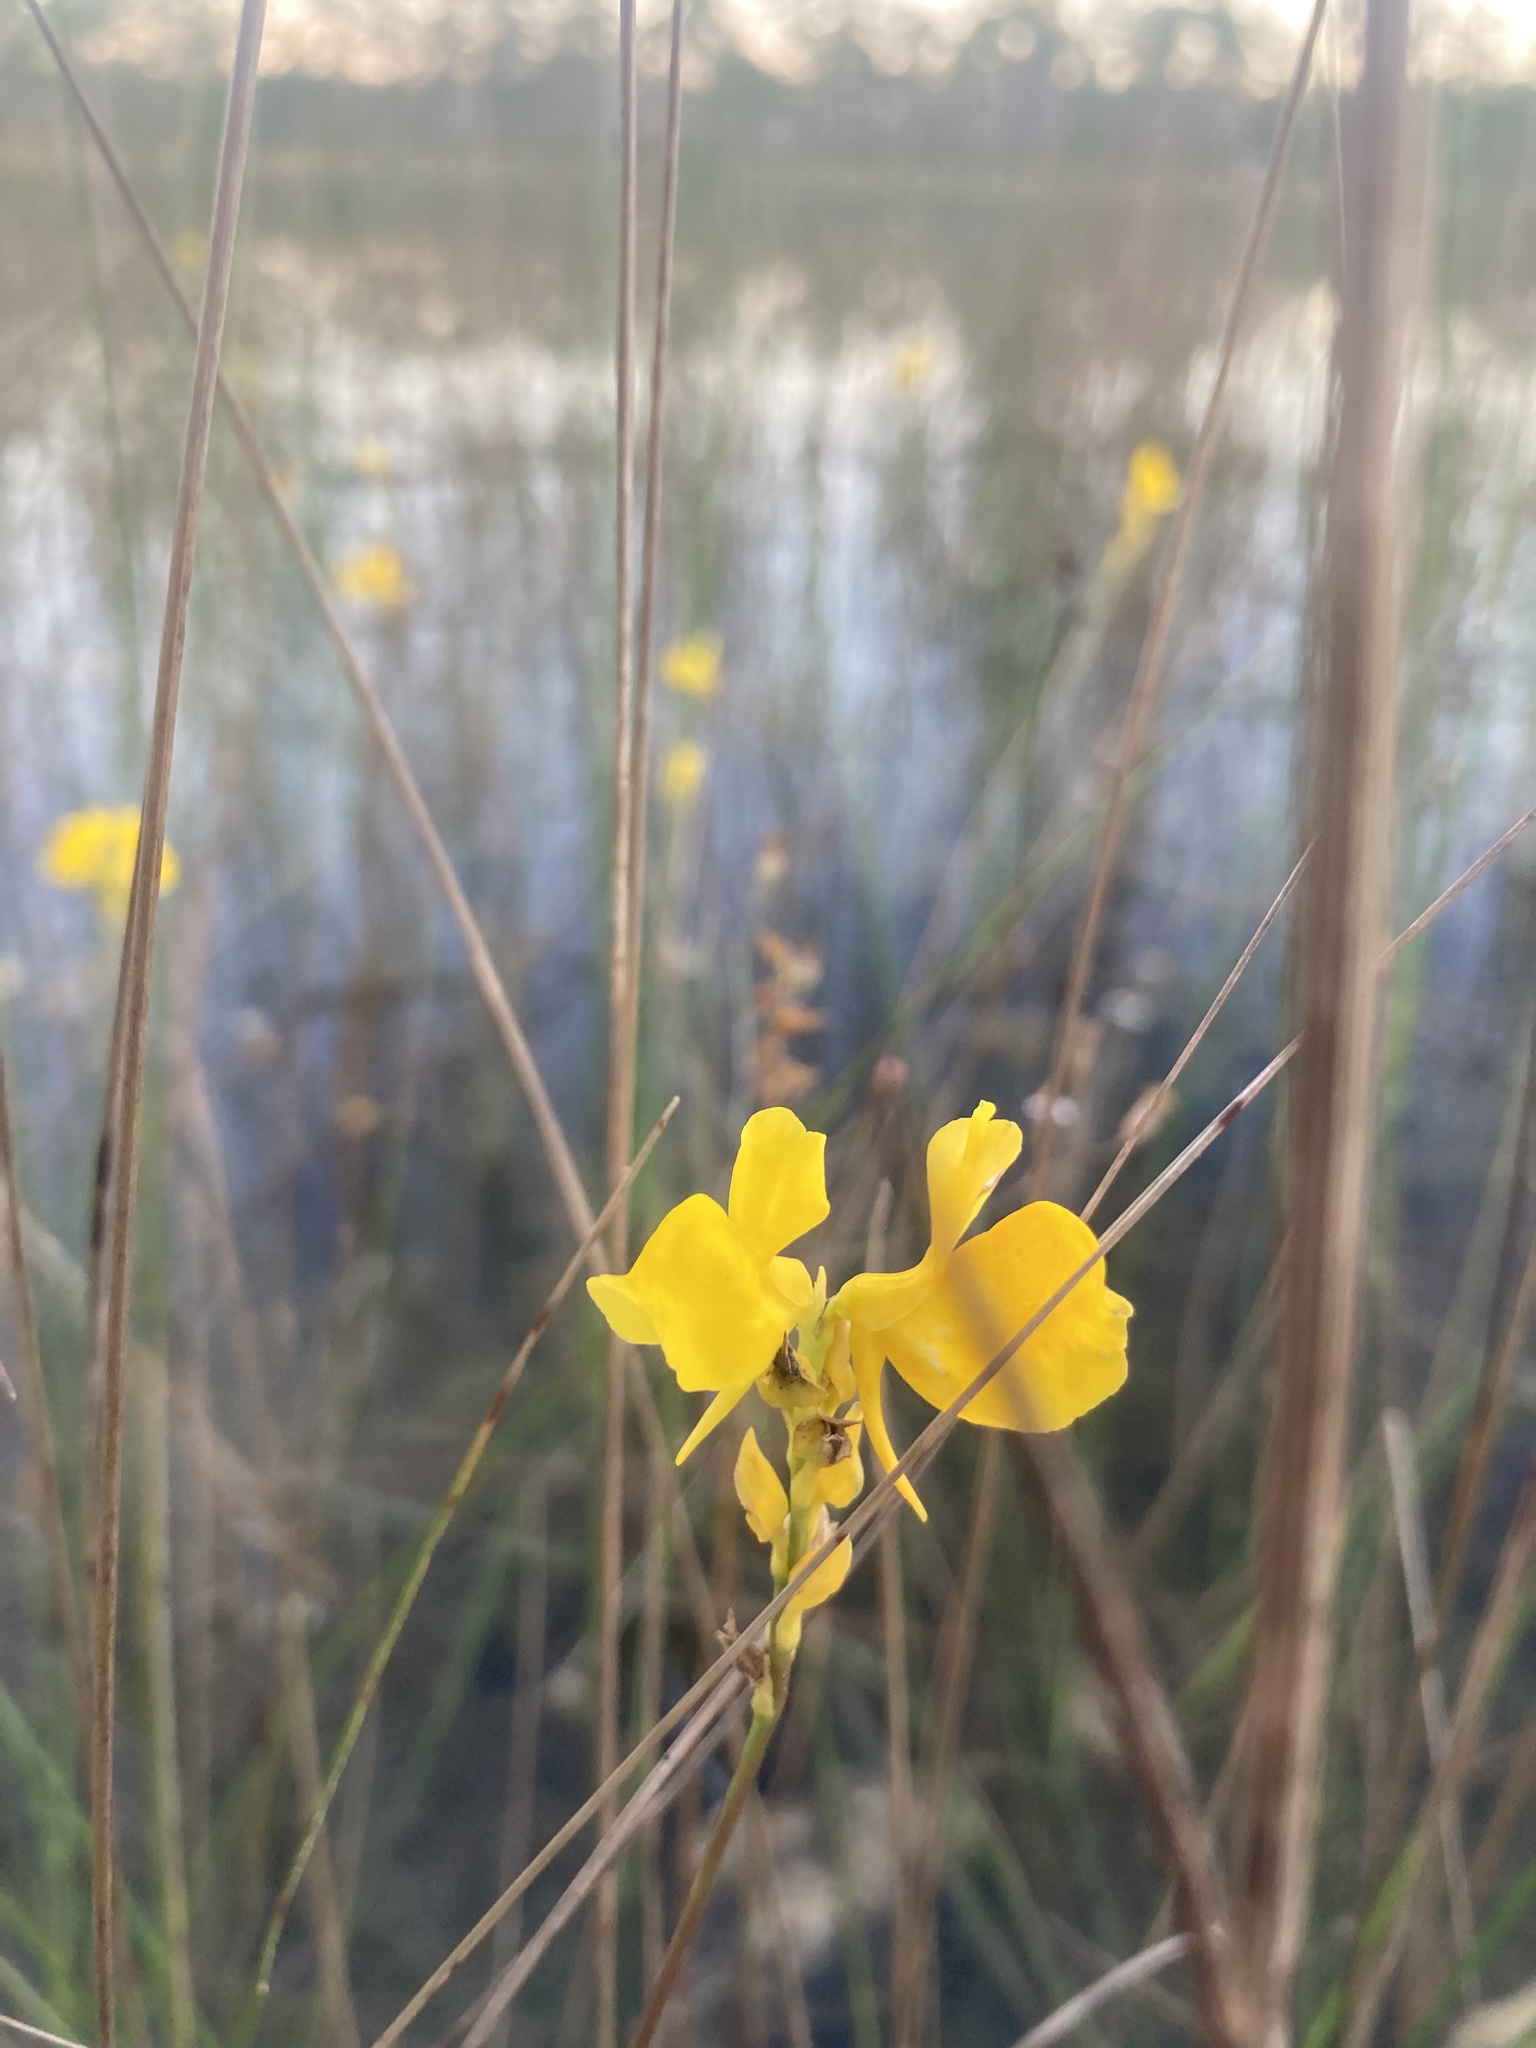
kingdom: Plantae
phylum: Tracheophyta
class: Magnoliopsida
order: Lamiales
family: Lentibulariaceae
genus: Utricularia
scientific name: Utricularia cornuta
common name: Horned bladderwort
